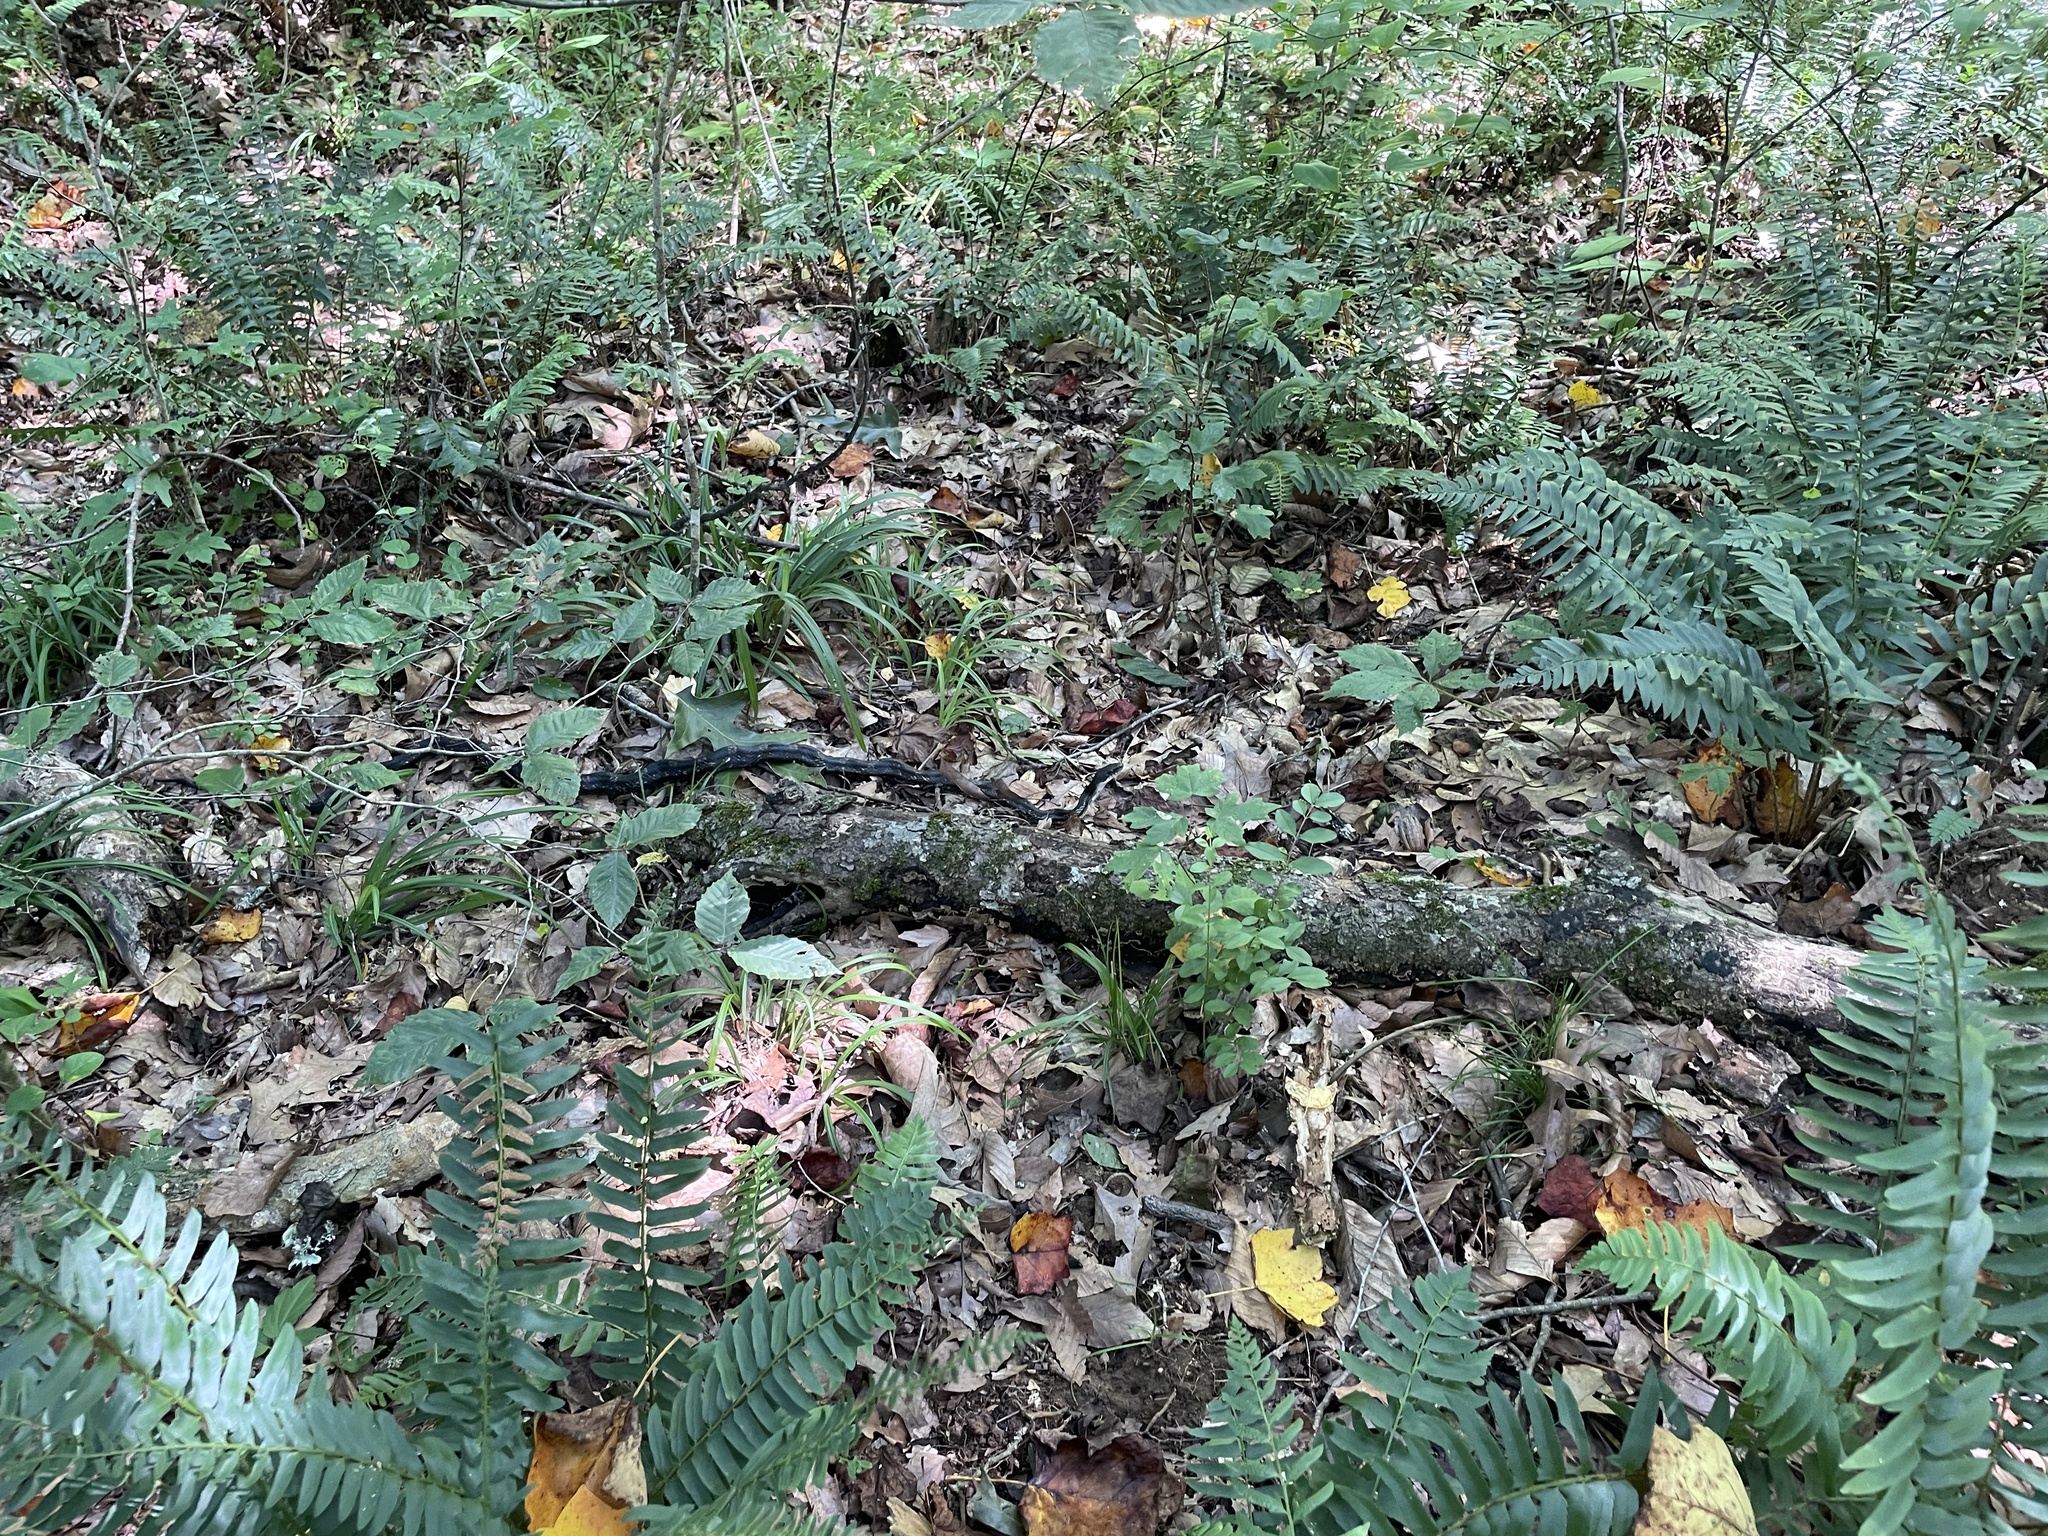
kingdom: Animalia
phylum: Chordata
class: Squamata
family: Colubridae
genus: Pantherophis
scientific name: Pantherophis spiloides
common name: Gray rat snake
